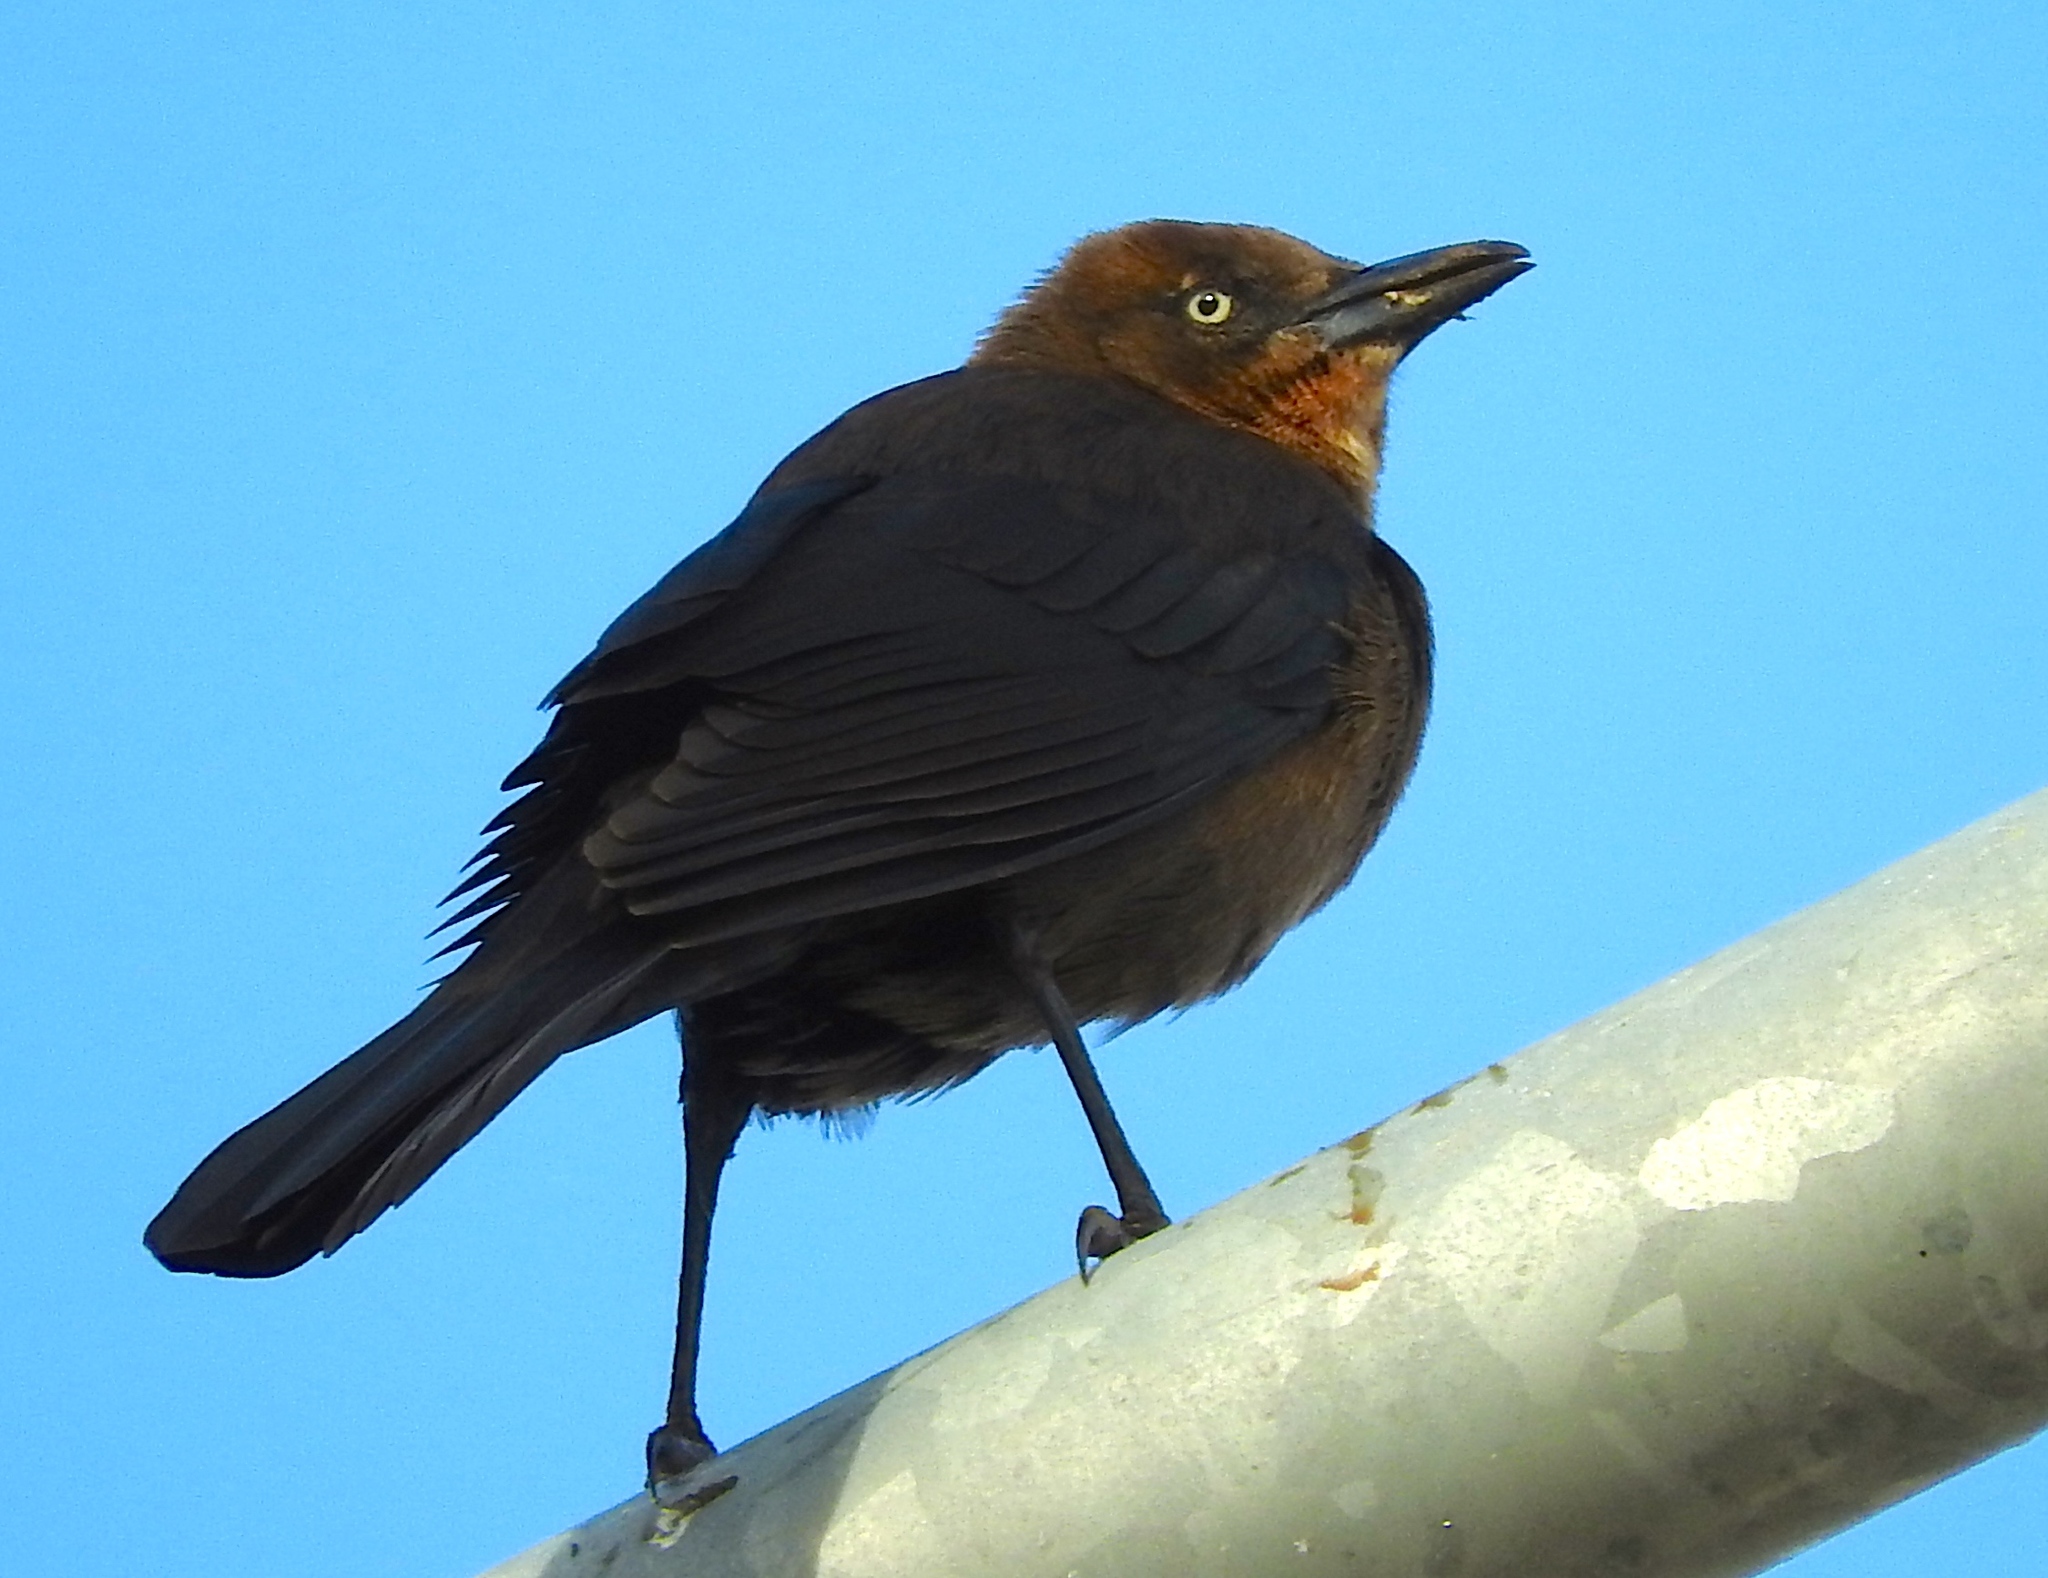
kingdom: Animalia
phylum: Chordata
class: Aves
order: Passeriformes
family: Icteridae
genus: Quiscalus
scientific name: Quiscalus mexicanus
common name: Great-tailed grackle
